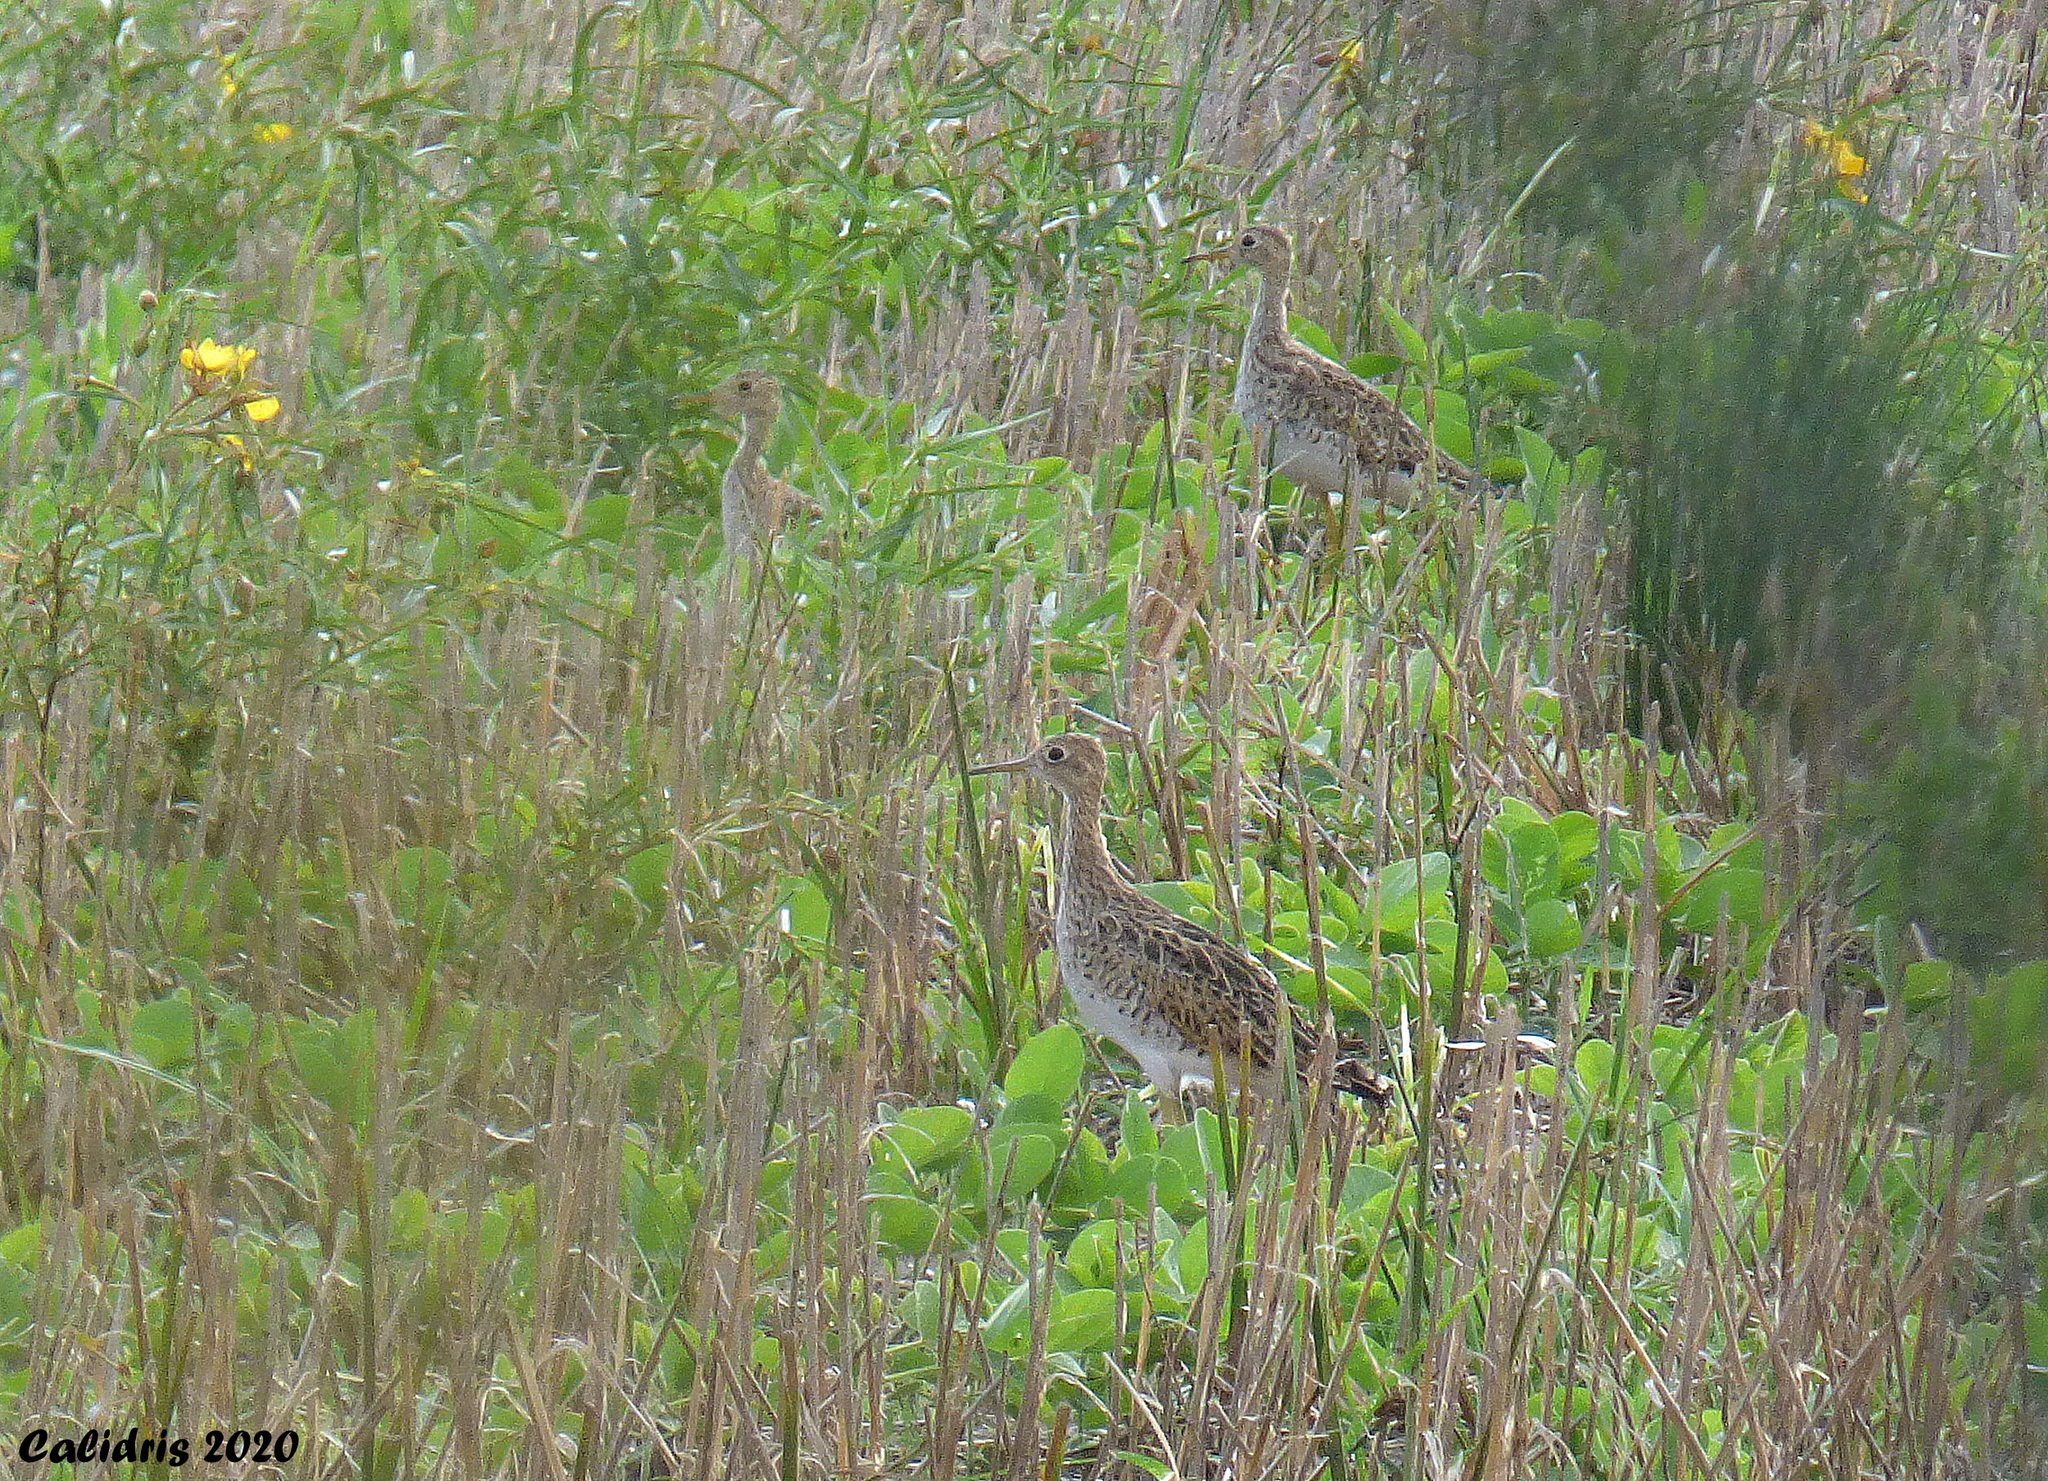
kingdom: Animalia
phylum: Chordata
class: Aves
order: Charadriiformes
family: Scolopacidae
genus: Bartramia
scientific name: Bartramia longicauda
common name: Upland sandpiper
